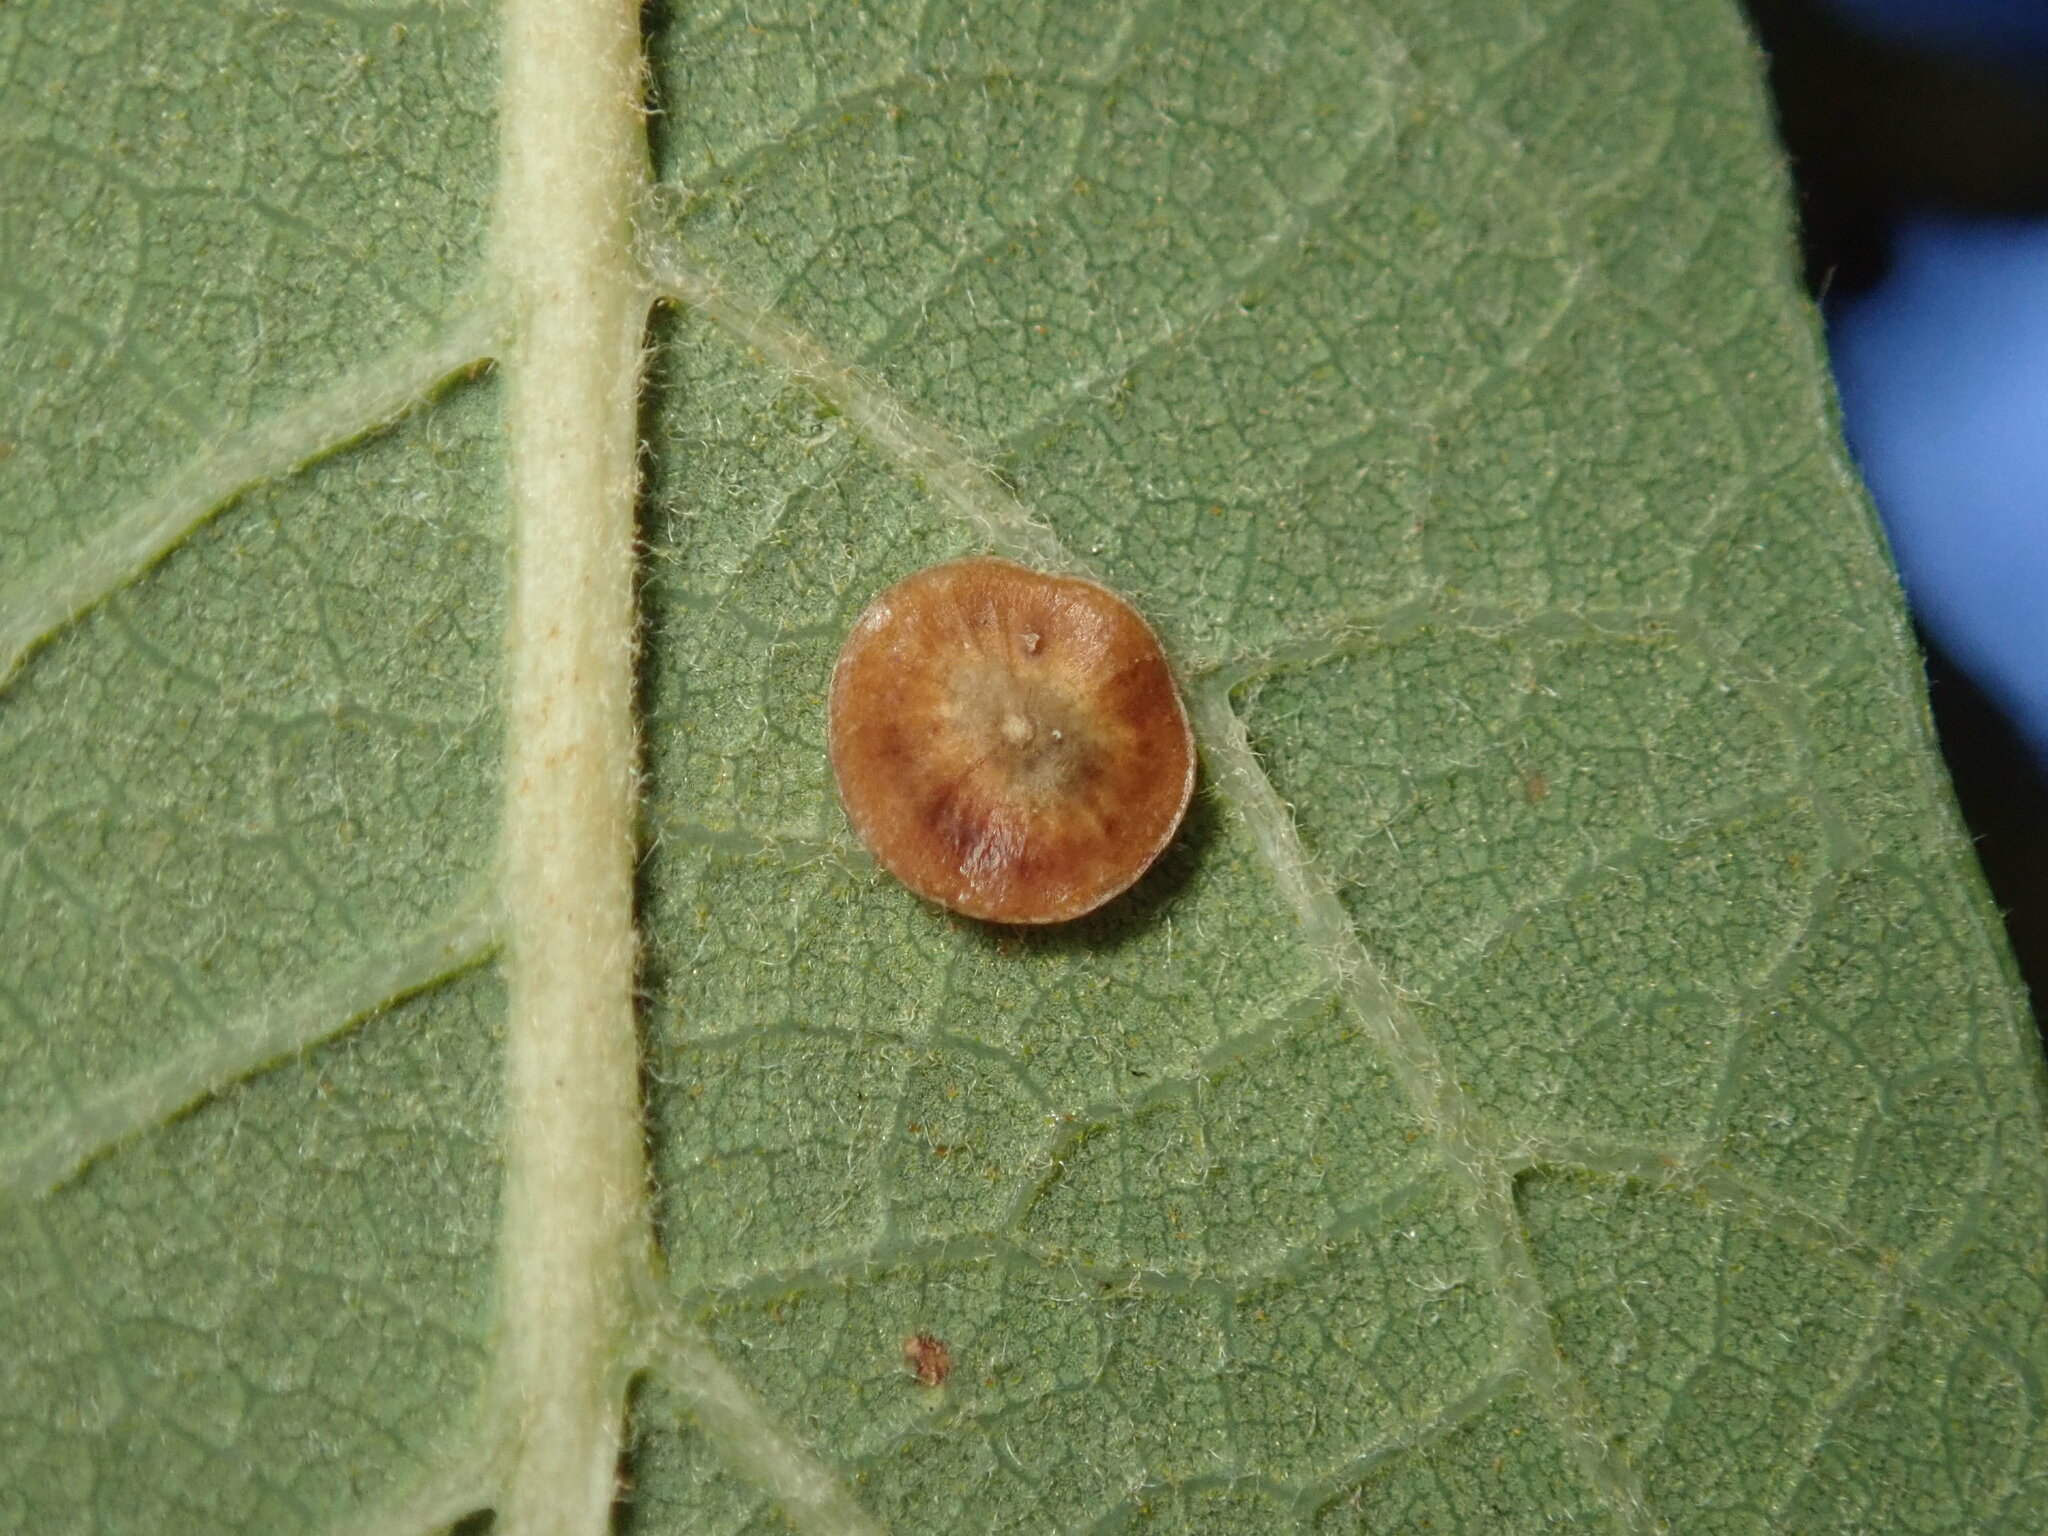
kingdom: Animalia
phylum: Arthropoda
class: Insecta
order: Hymenoptera
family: Cynipidae
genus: Andricus
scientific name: Andricus
